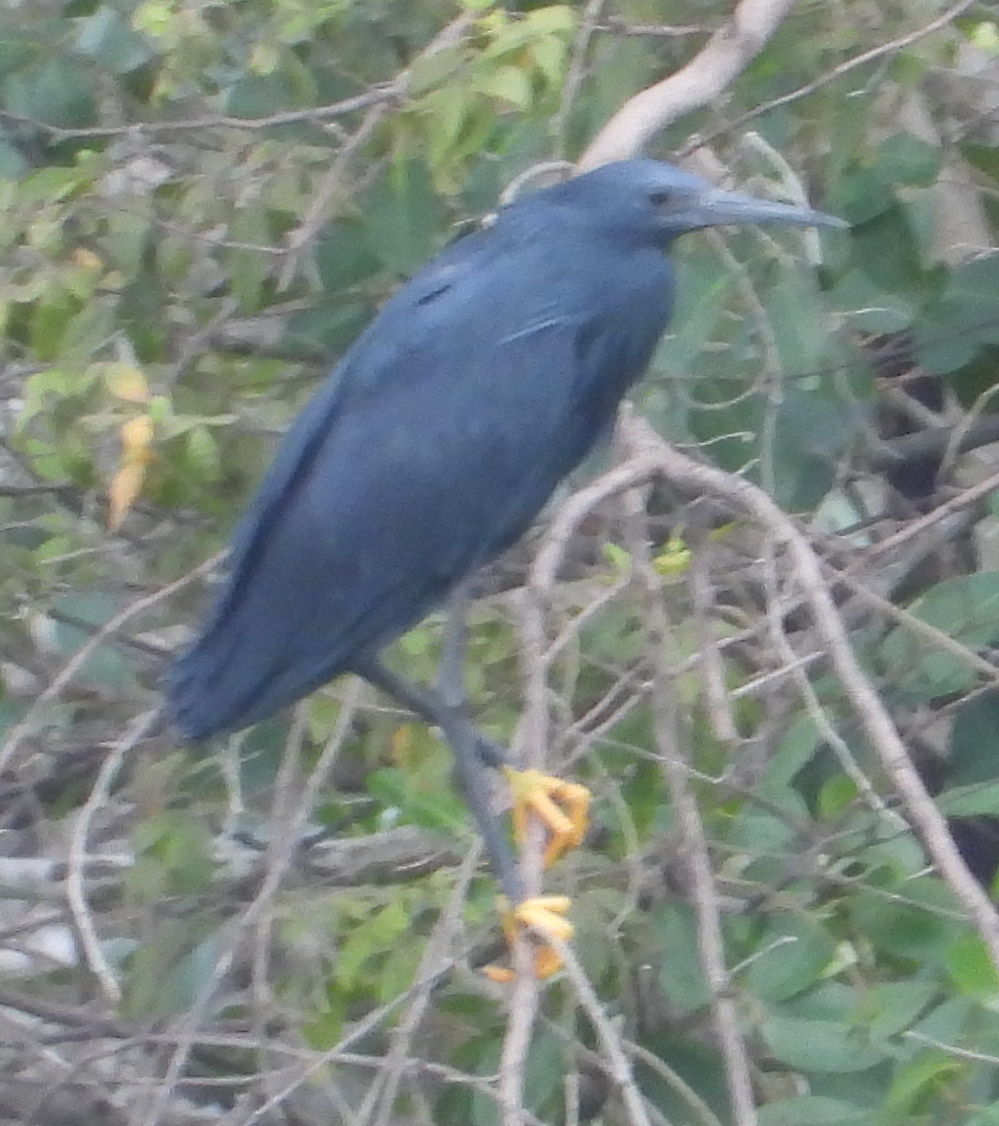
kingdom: Animalia
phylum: Chordata
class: Aves
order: Pelecaniformes
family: Ardeidae
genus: Egretta
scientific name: Egretta ardesiaca
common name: Black heron
